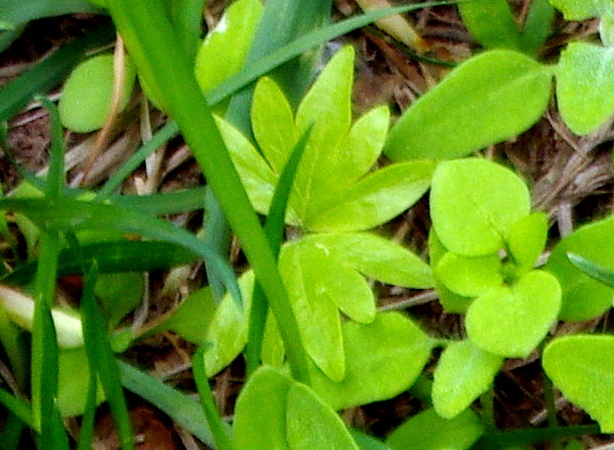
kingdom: Plantae
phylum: Tracheophyta
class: Magnoliopsida
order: Malvales
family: Malvaceae
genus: Tilia
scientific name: Tilia cordata
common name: Small-leaved lime
